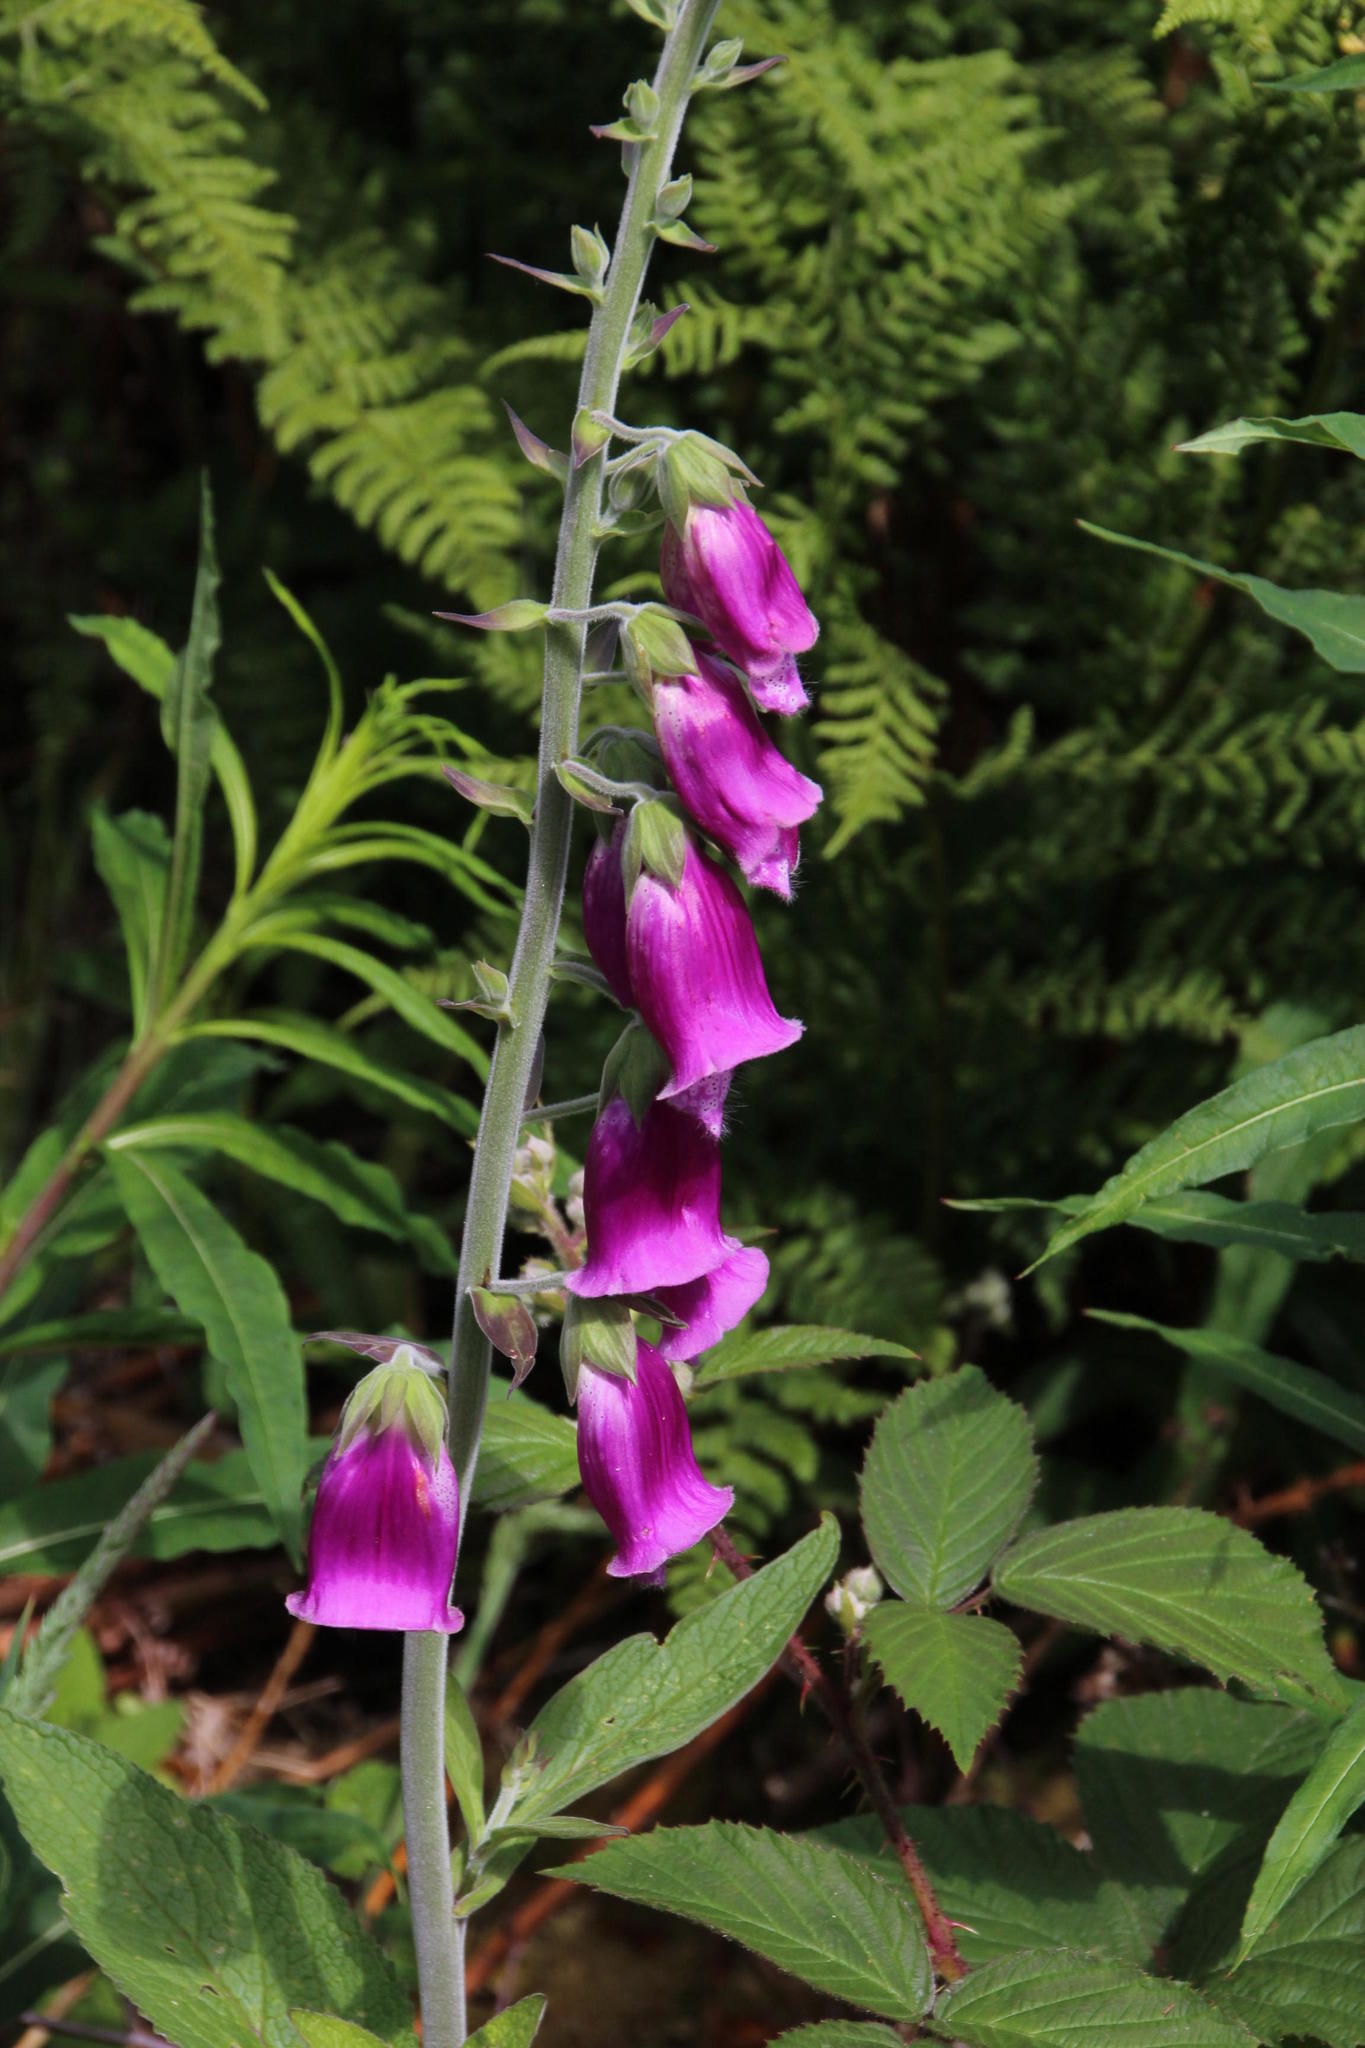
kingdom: Plantae
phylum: Tracheophyta
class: Magnoliopsida
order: Lamiales
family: Plantaginaceae
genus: Digitalis
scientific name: Digitalis purpurea
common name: Foxglove
